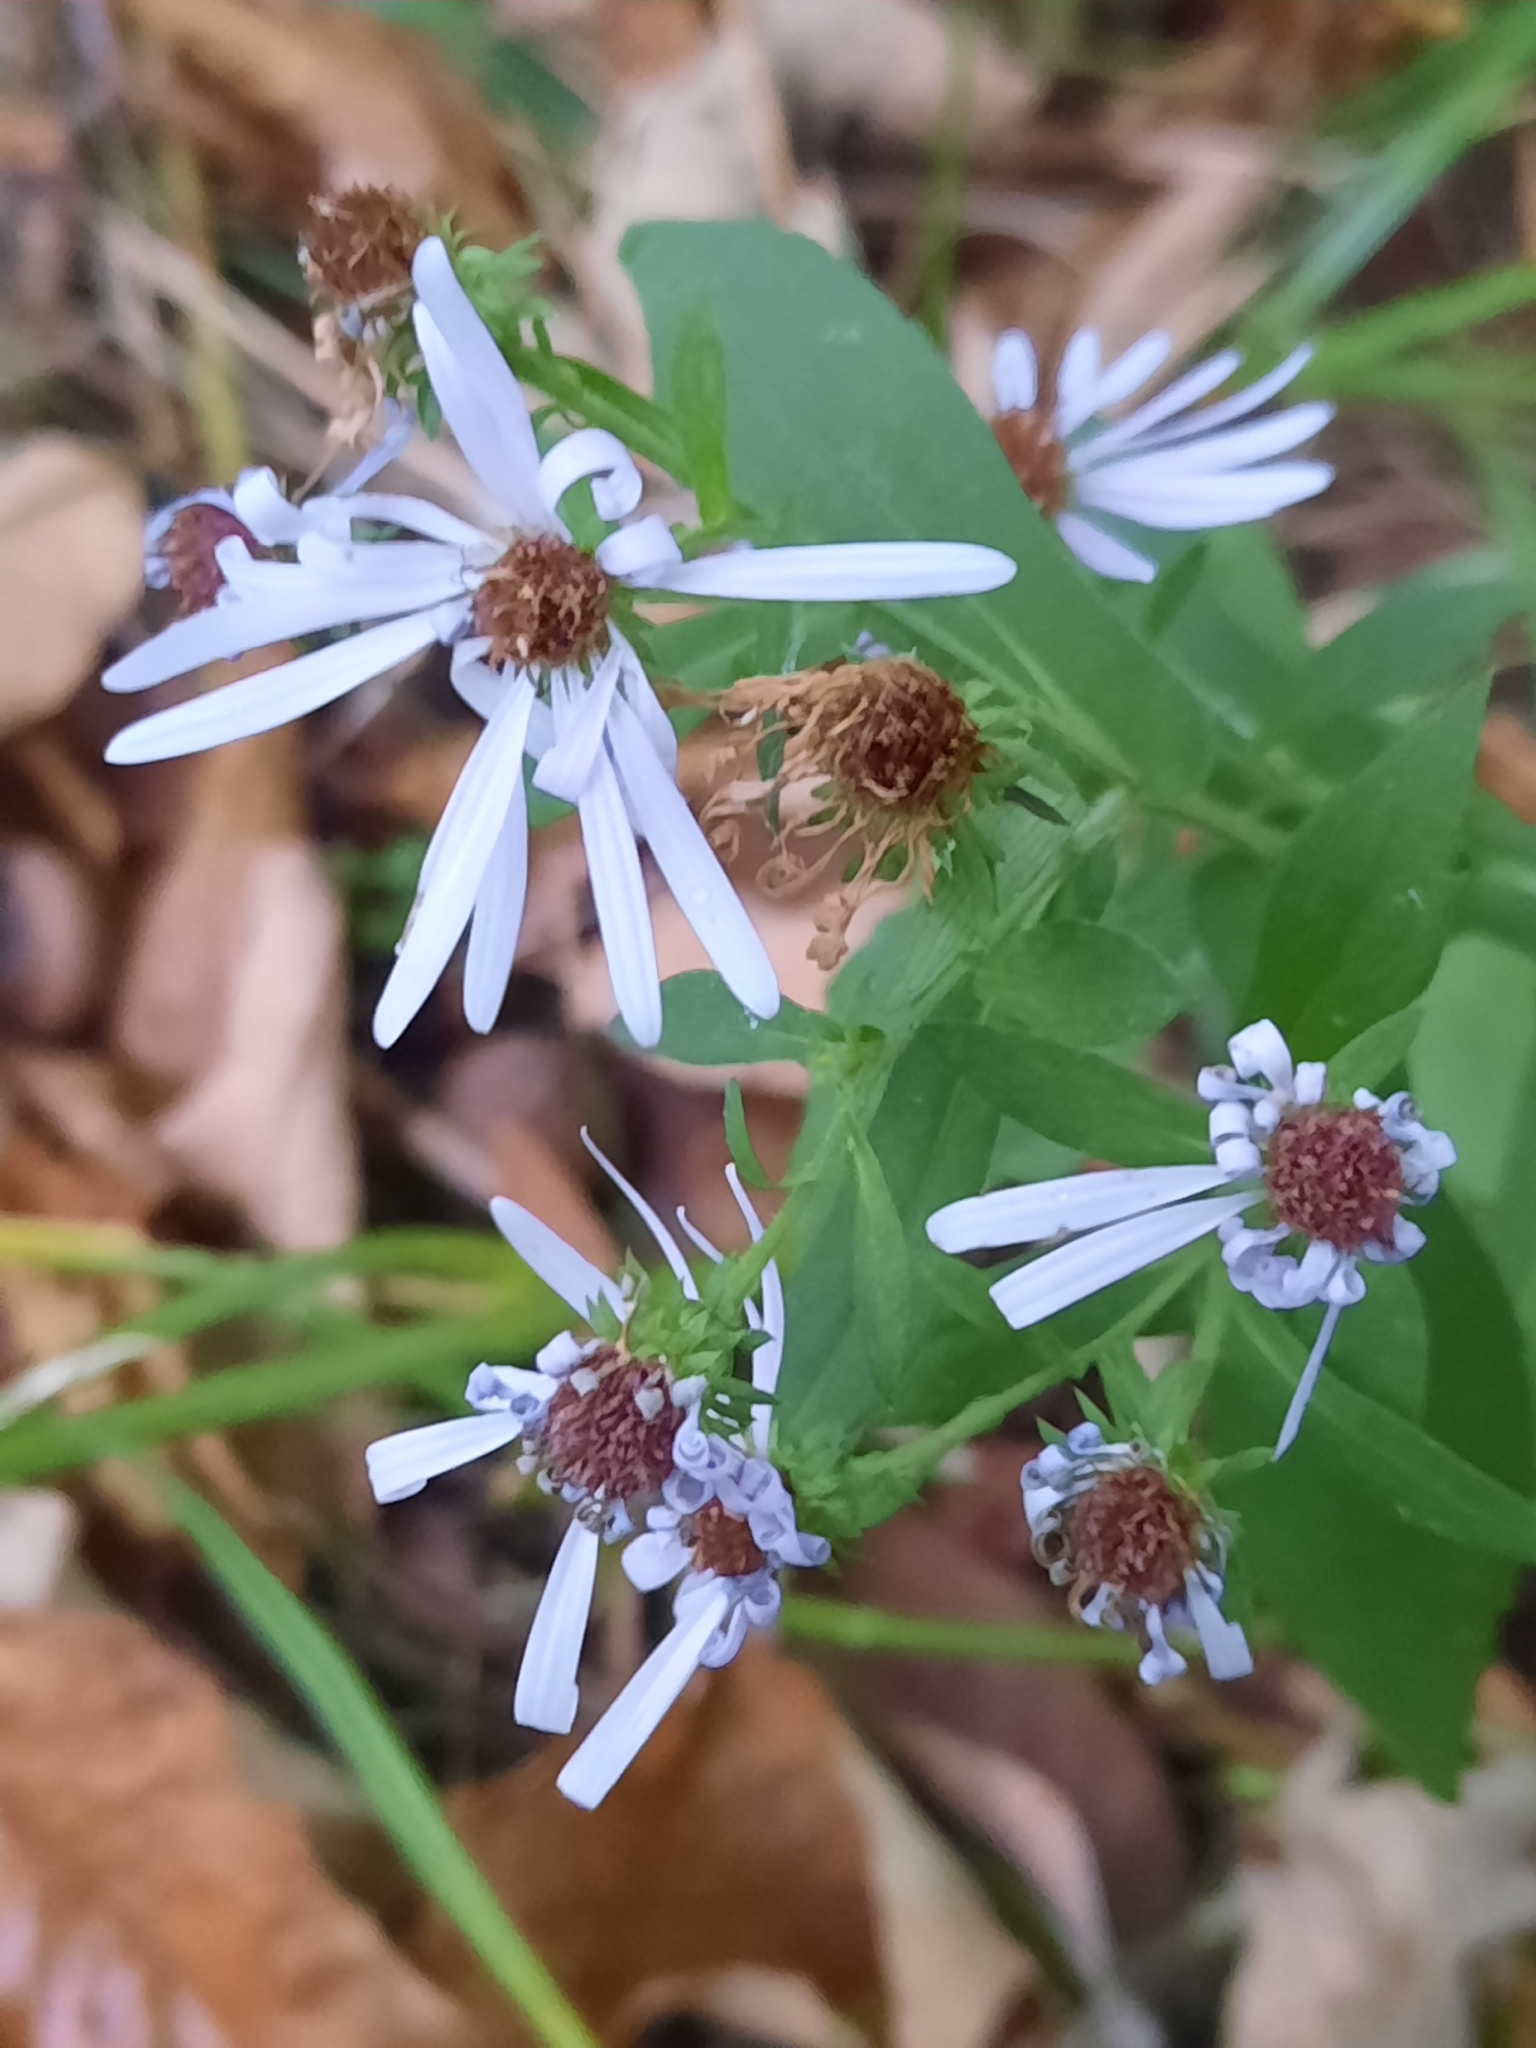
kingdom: Plantae
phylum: Tracheophyta
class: Magnoliopsida
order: Asterales
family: Asteraceae
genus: Symphyotrichum
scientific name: Symphyotrichum prenanthoides
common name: Crooked-stem aster
